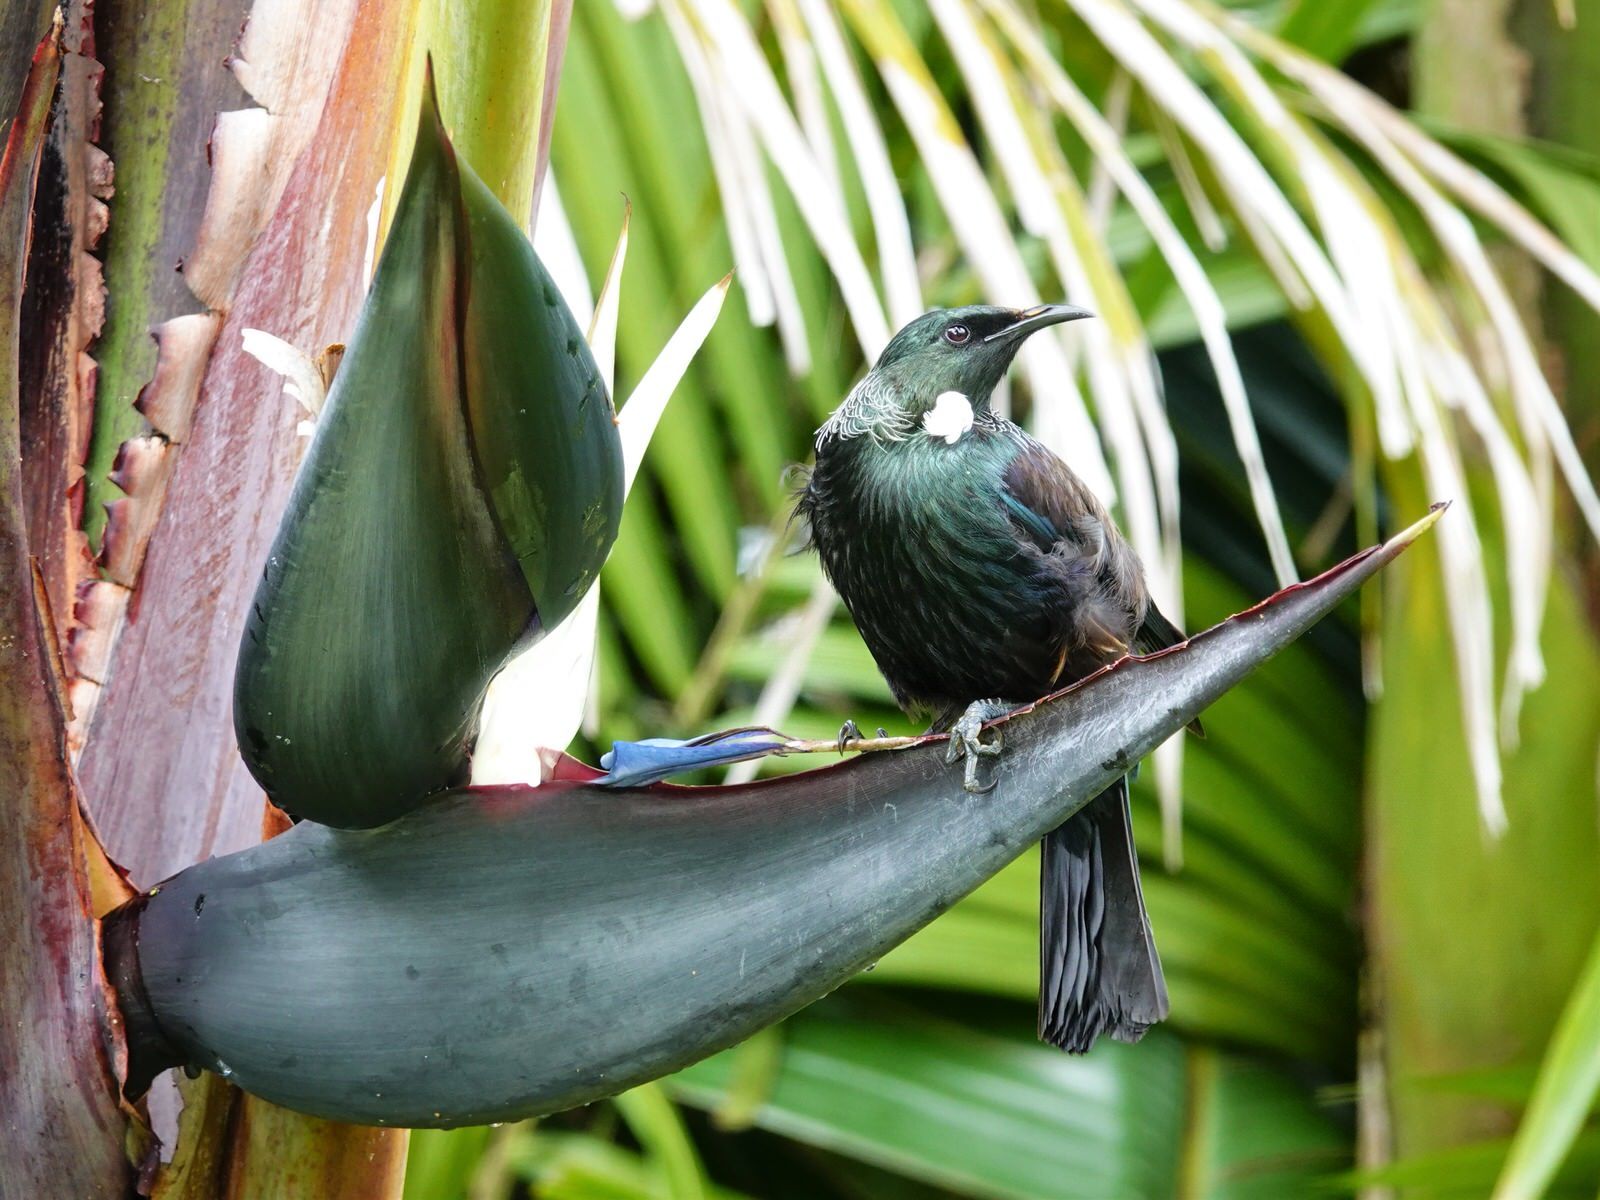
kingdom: Animalia
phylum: Chordata
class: Aves
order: Passeriformes
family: Meliphagidae
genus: Prosthemadera
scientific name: Prosthemadera novaeseelandiae
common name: Tui
